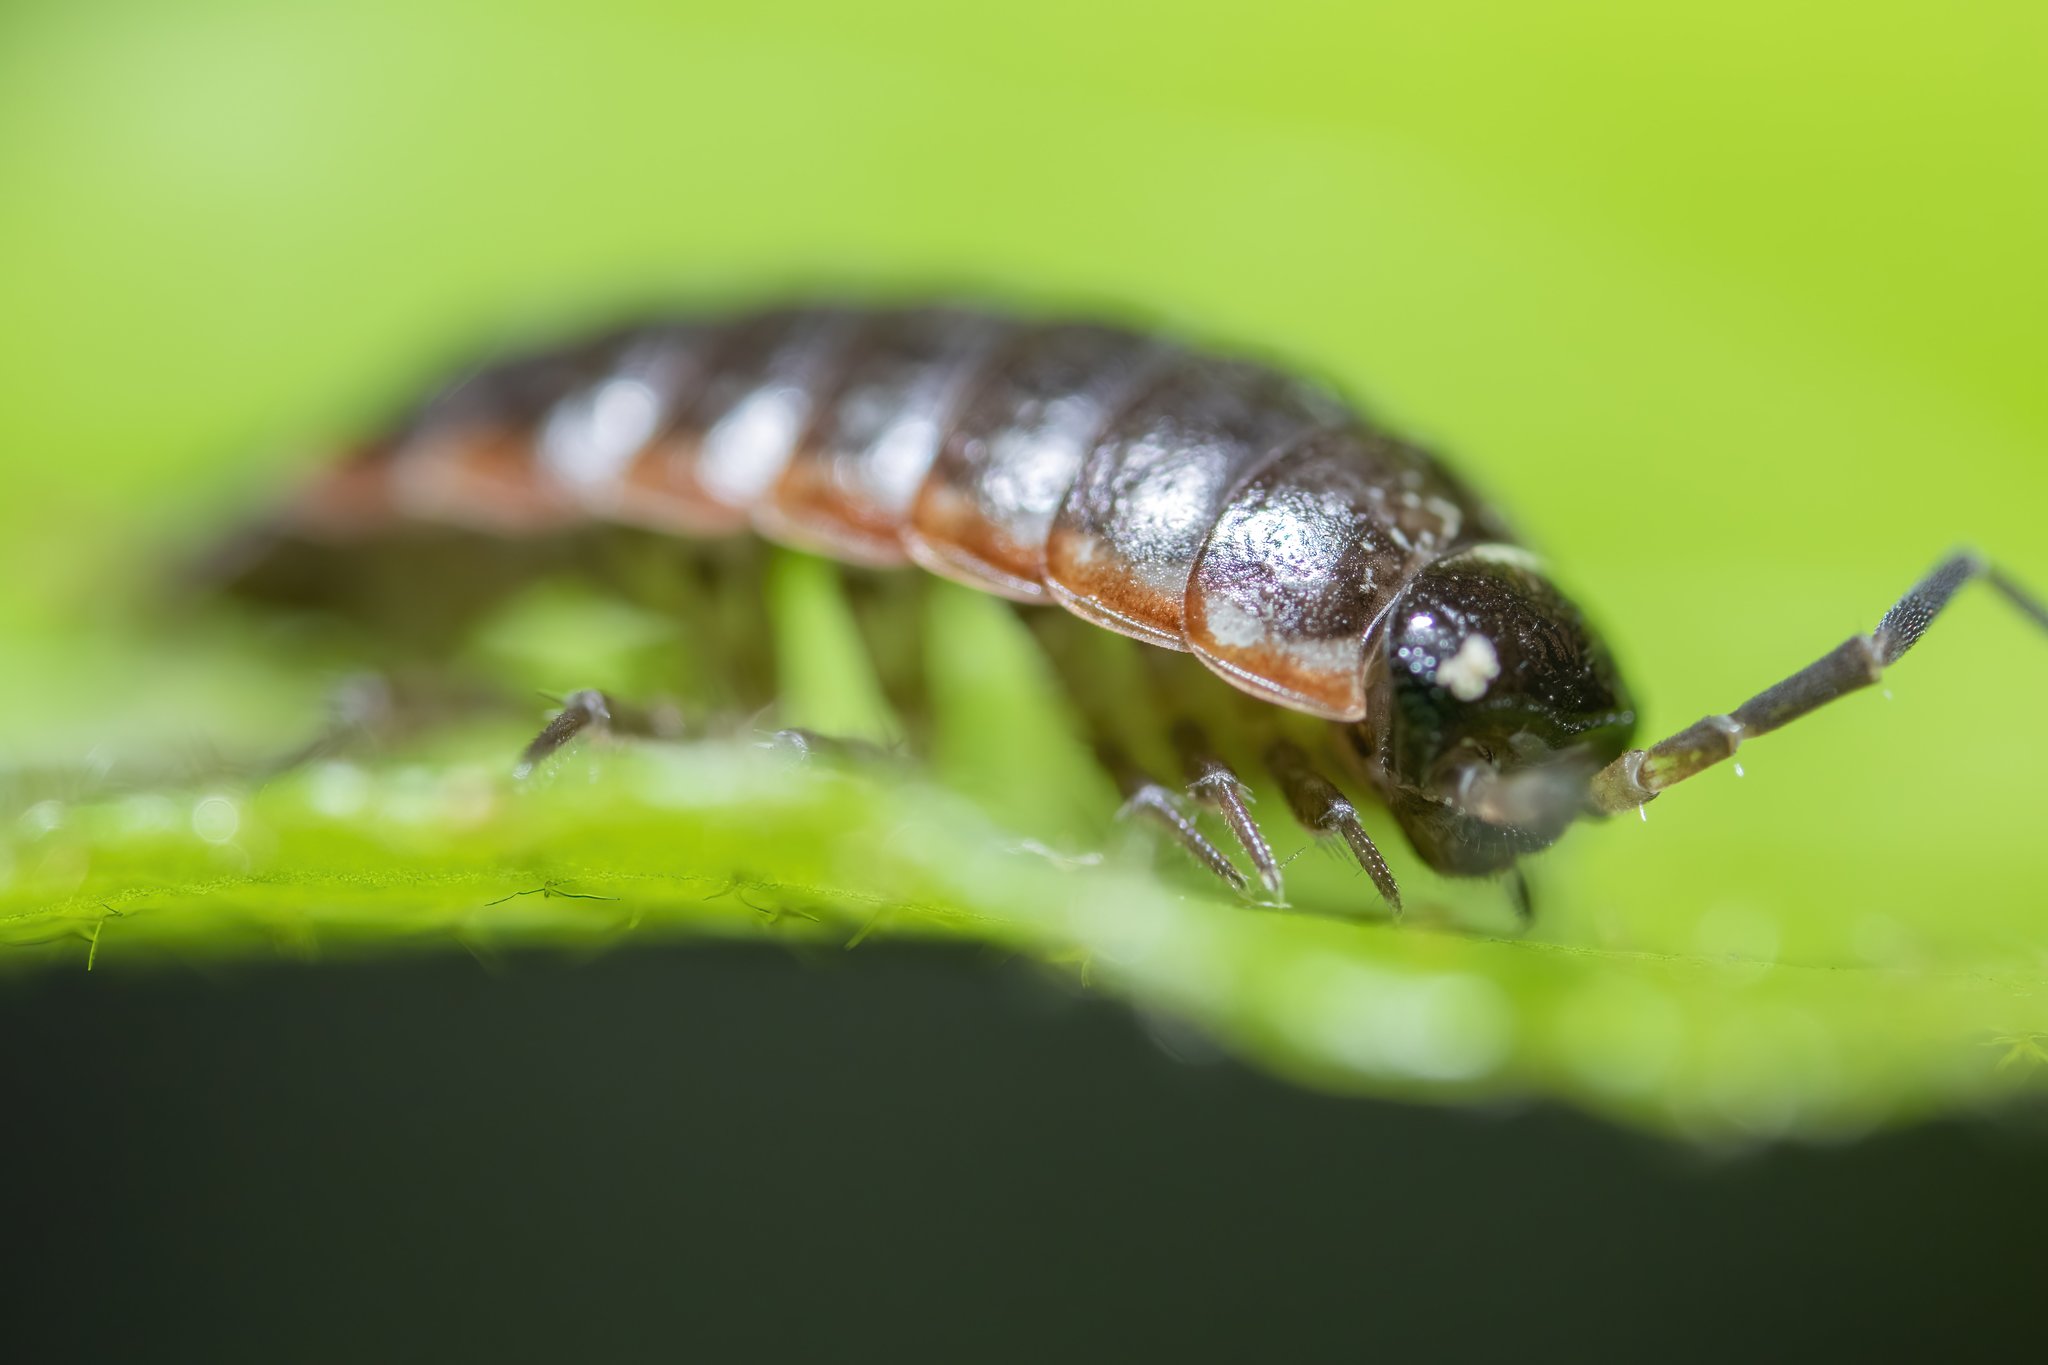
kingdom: Animalia
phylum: Arthropoda
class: Malacostraca
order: Isopoda
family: Philosciidae
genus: Philoscia
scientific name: Philoscia muscorum
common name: Common striped woodlouse
